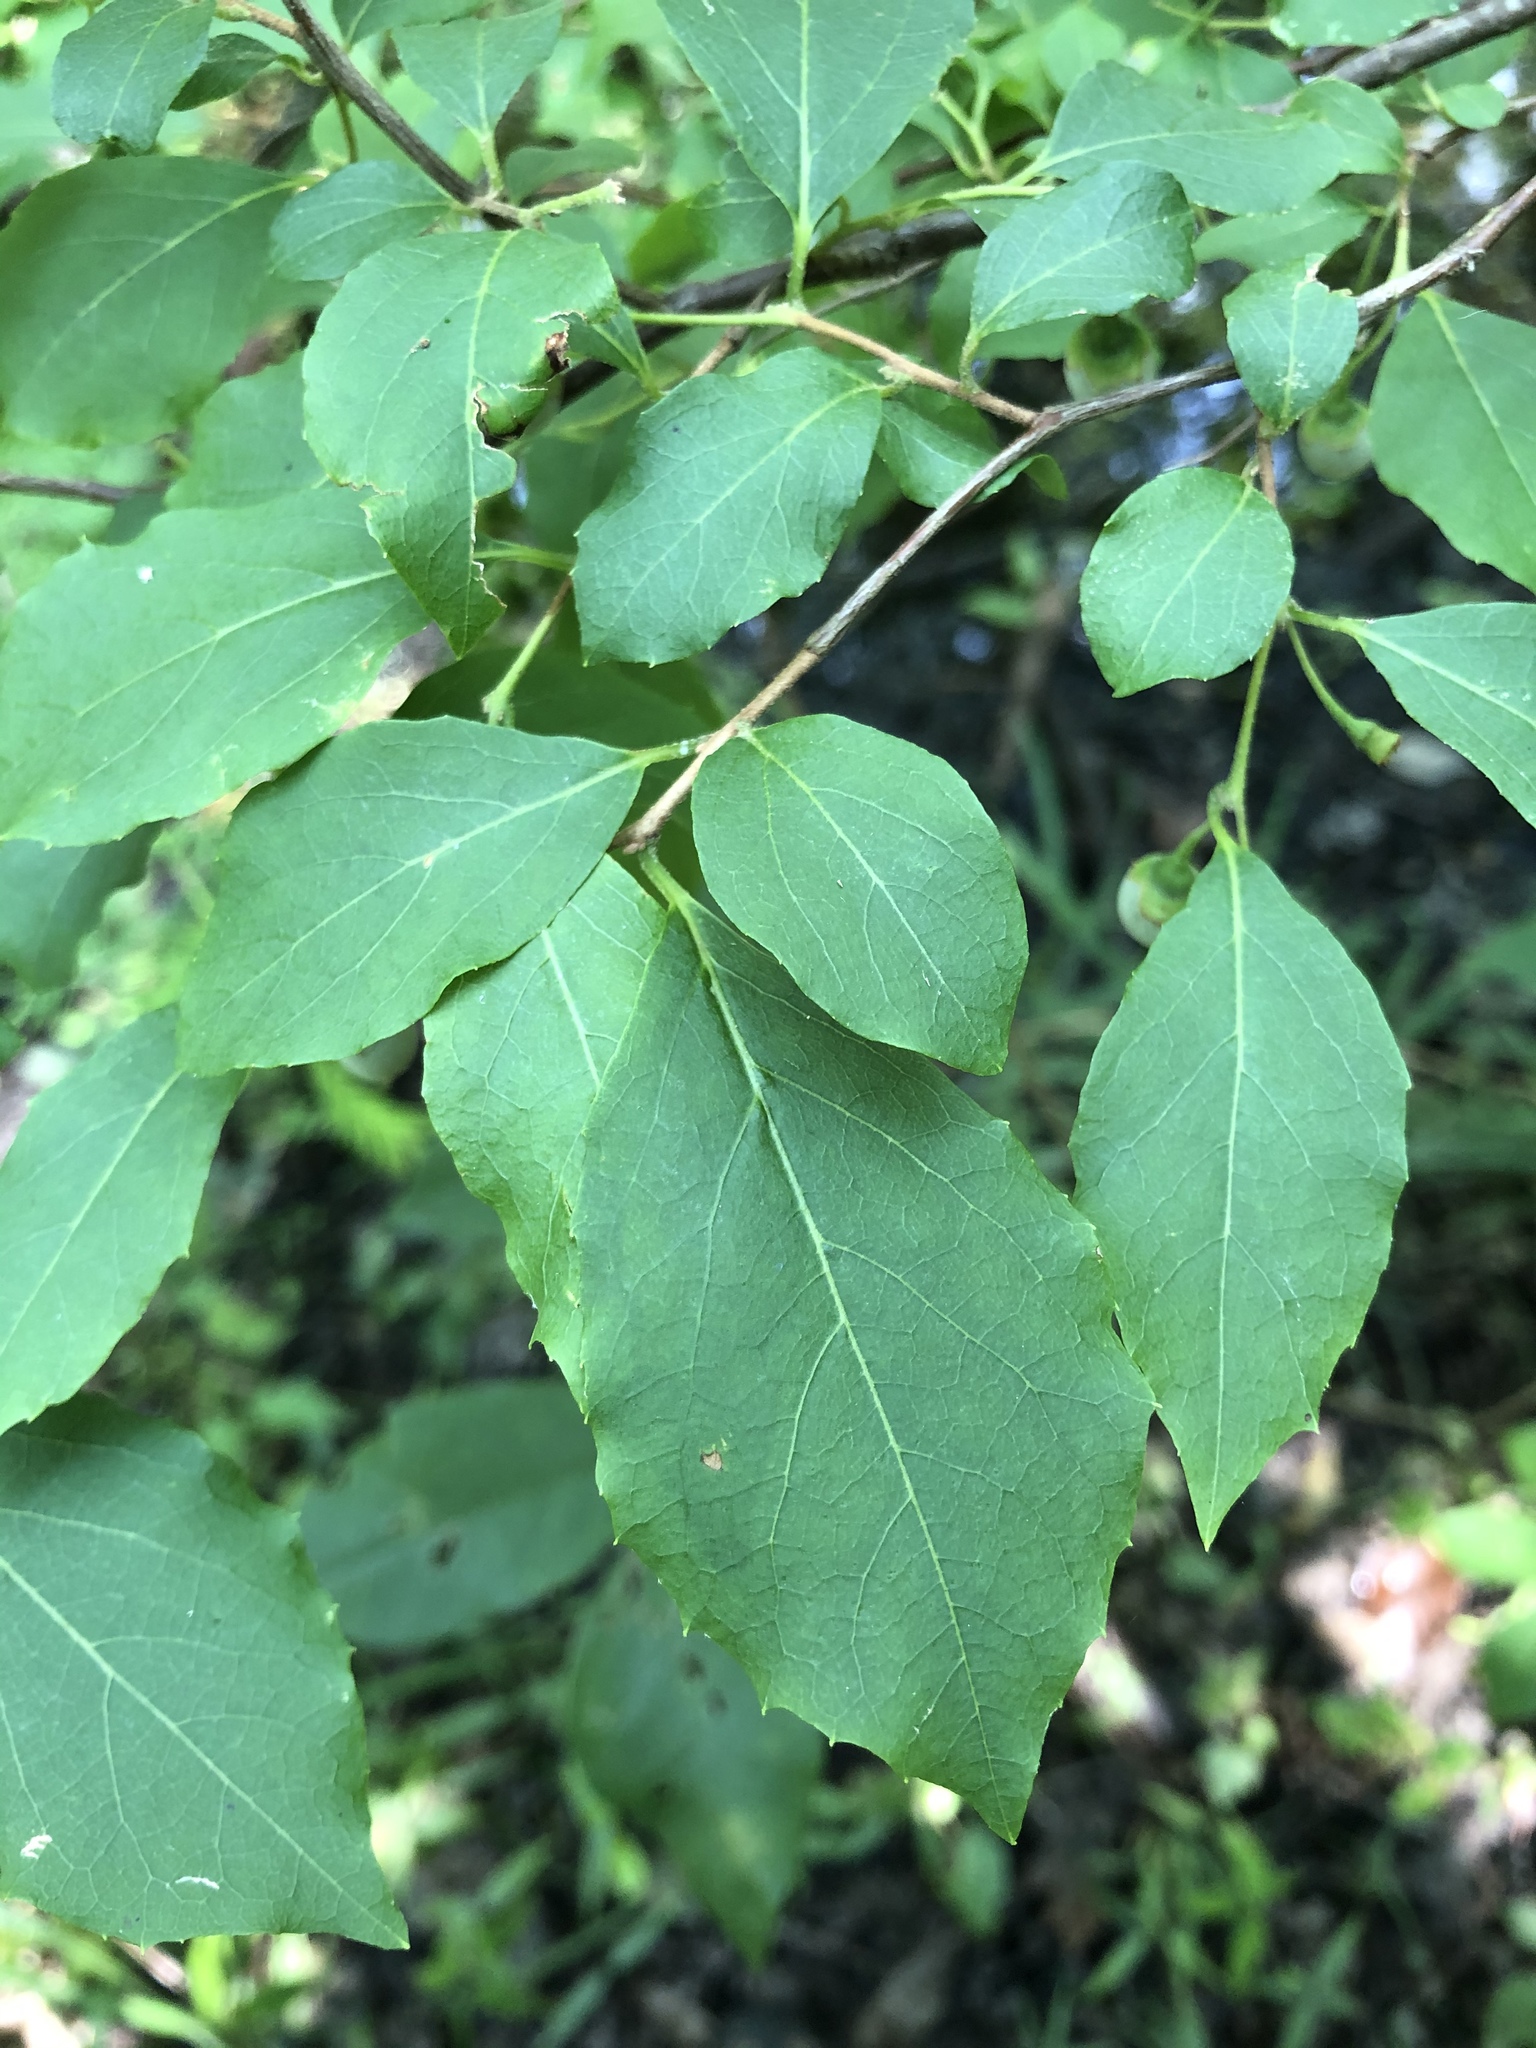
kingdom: Plantae
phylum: Tracheophyta
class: Magnoliopsida
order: Ericales
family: Styracaceae
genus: Styrax
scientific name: Styrax americanus
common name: American snowbell
